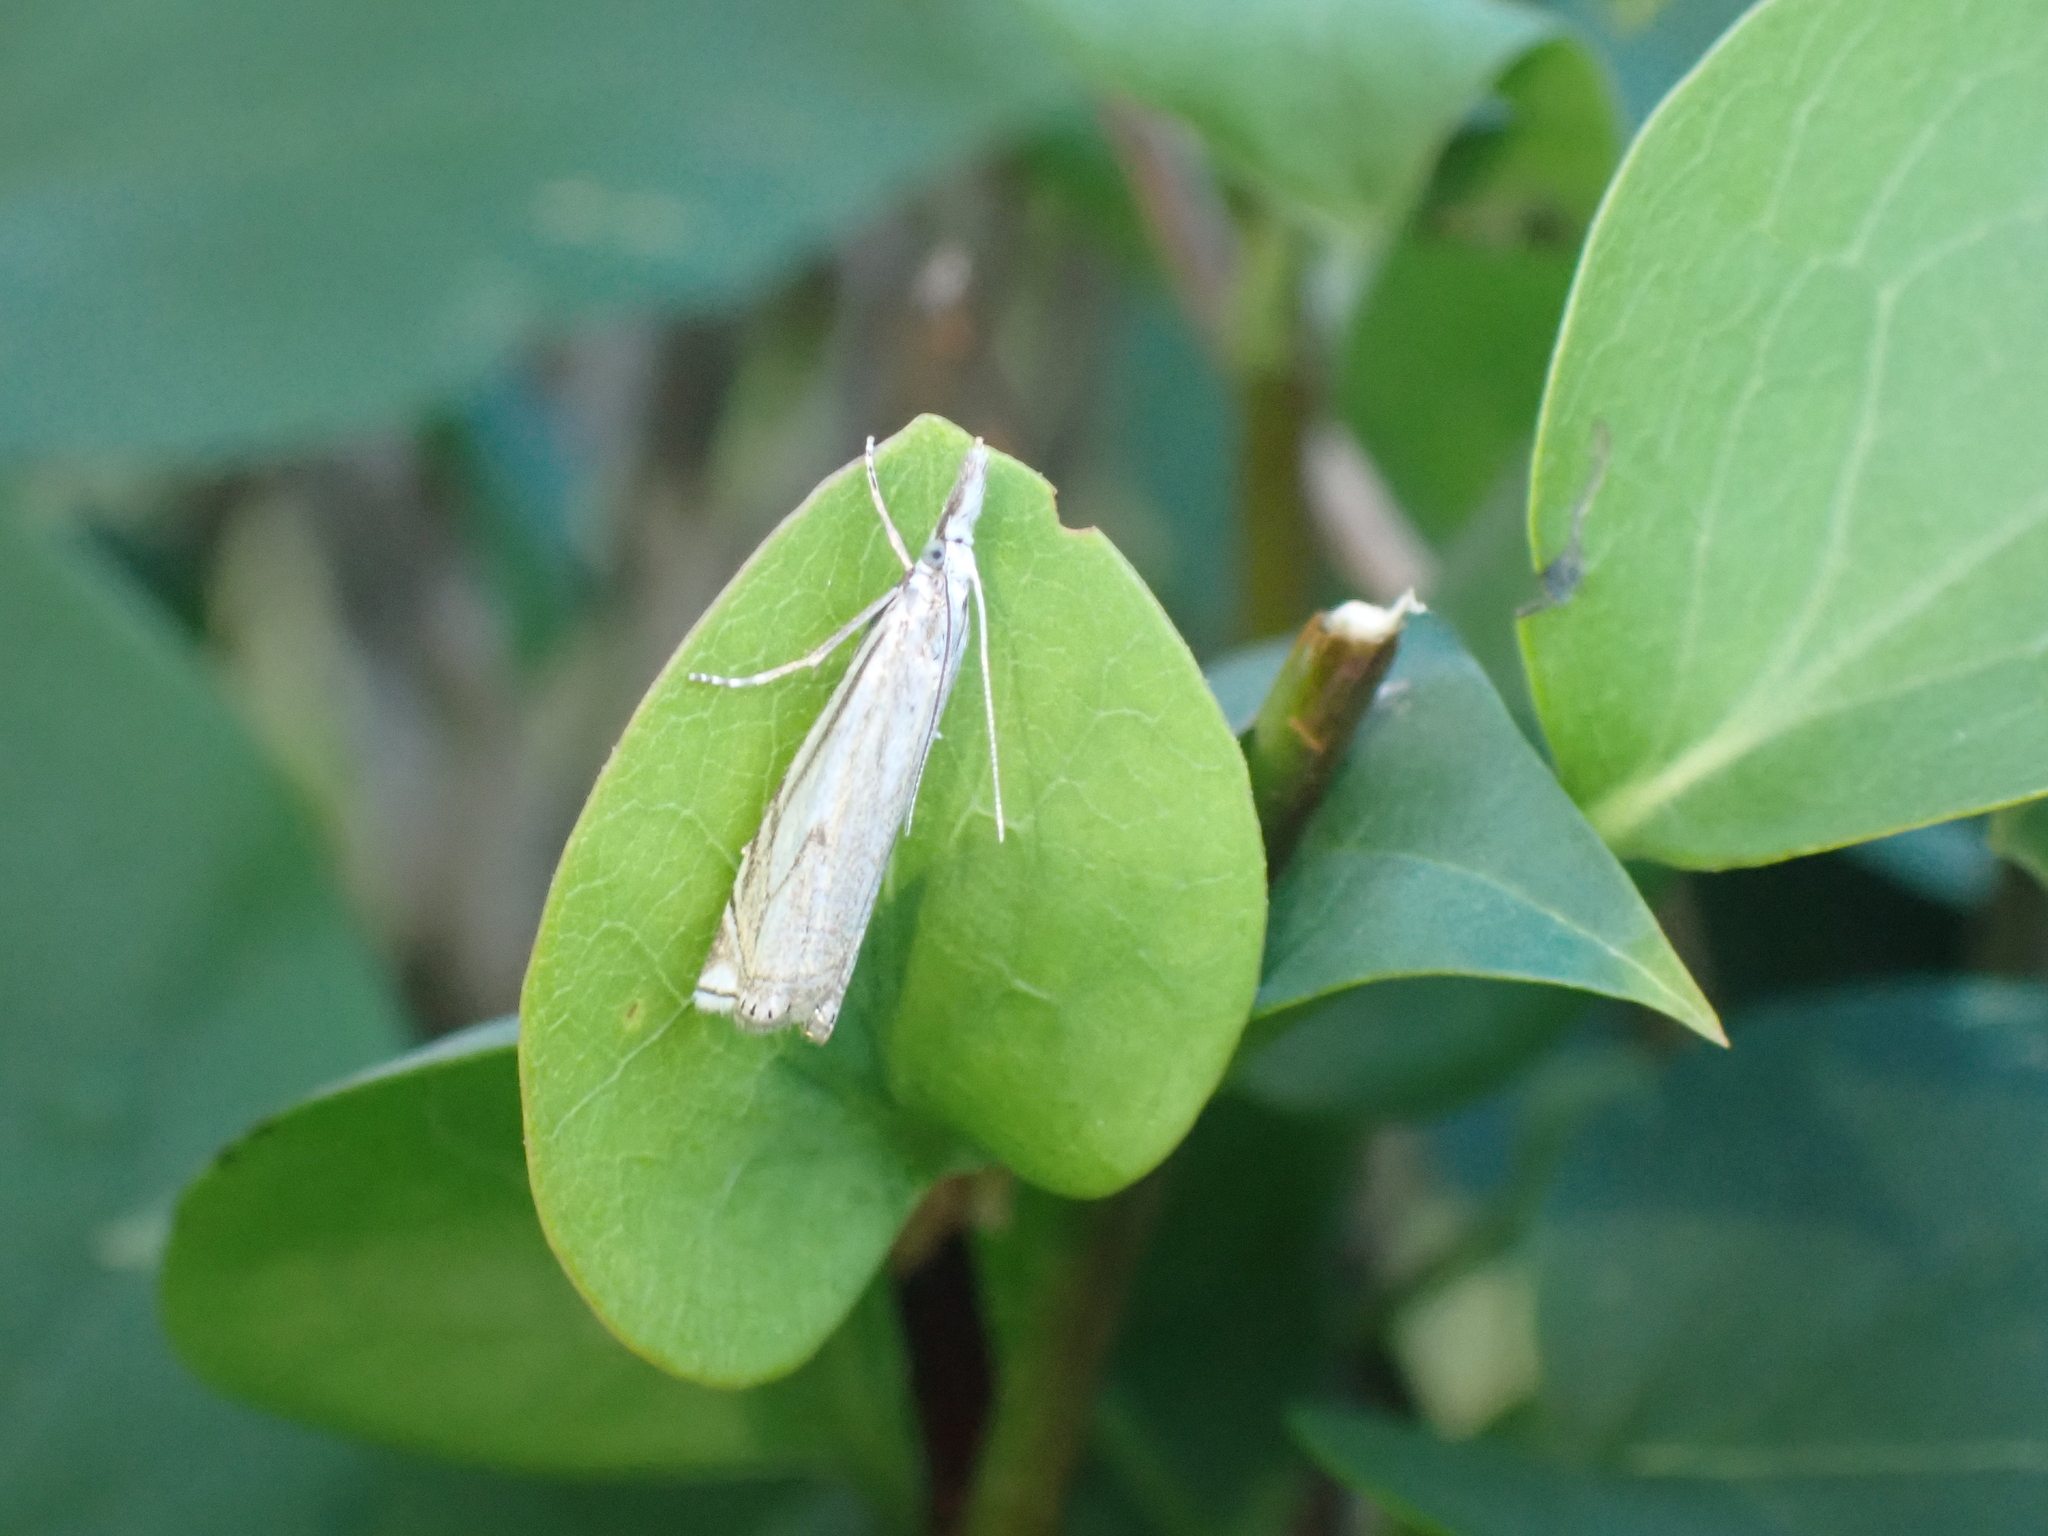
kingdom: Animalia
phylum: Arthropoda
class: Insecta
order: Lepidoptera
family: Crambidae
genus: Crambus
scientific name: Crambus nemorella
